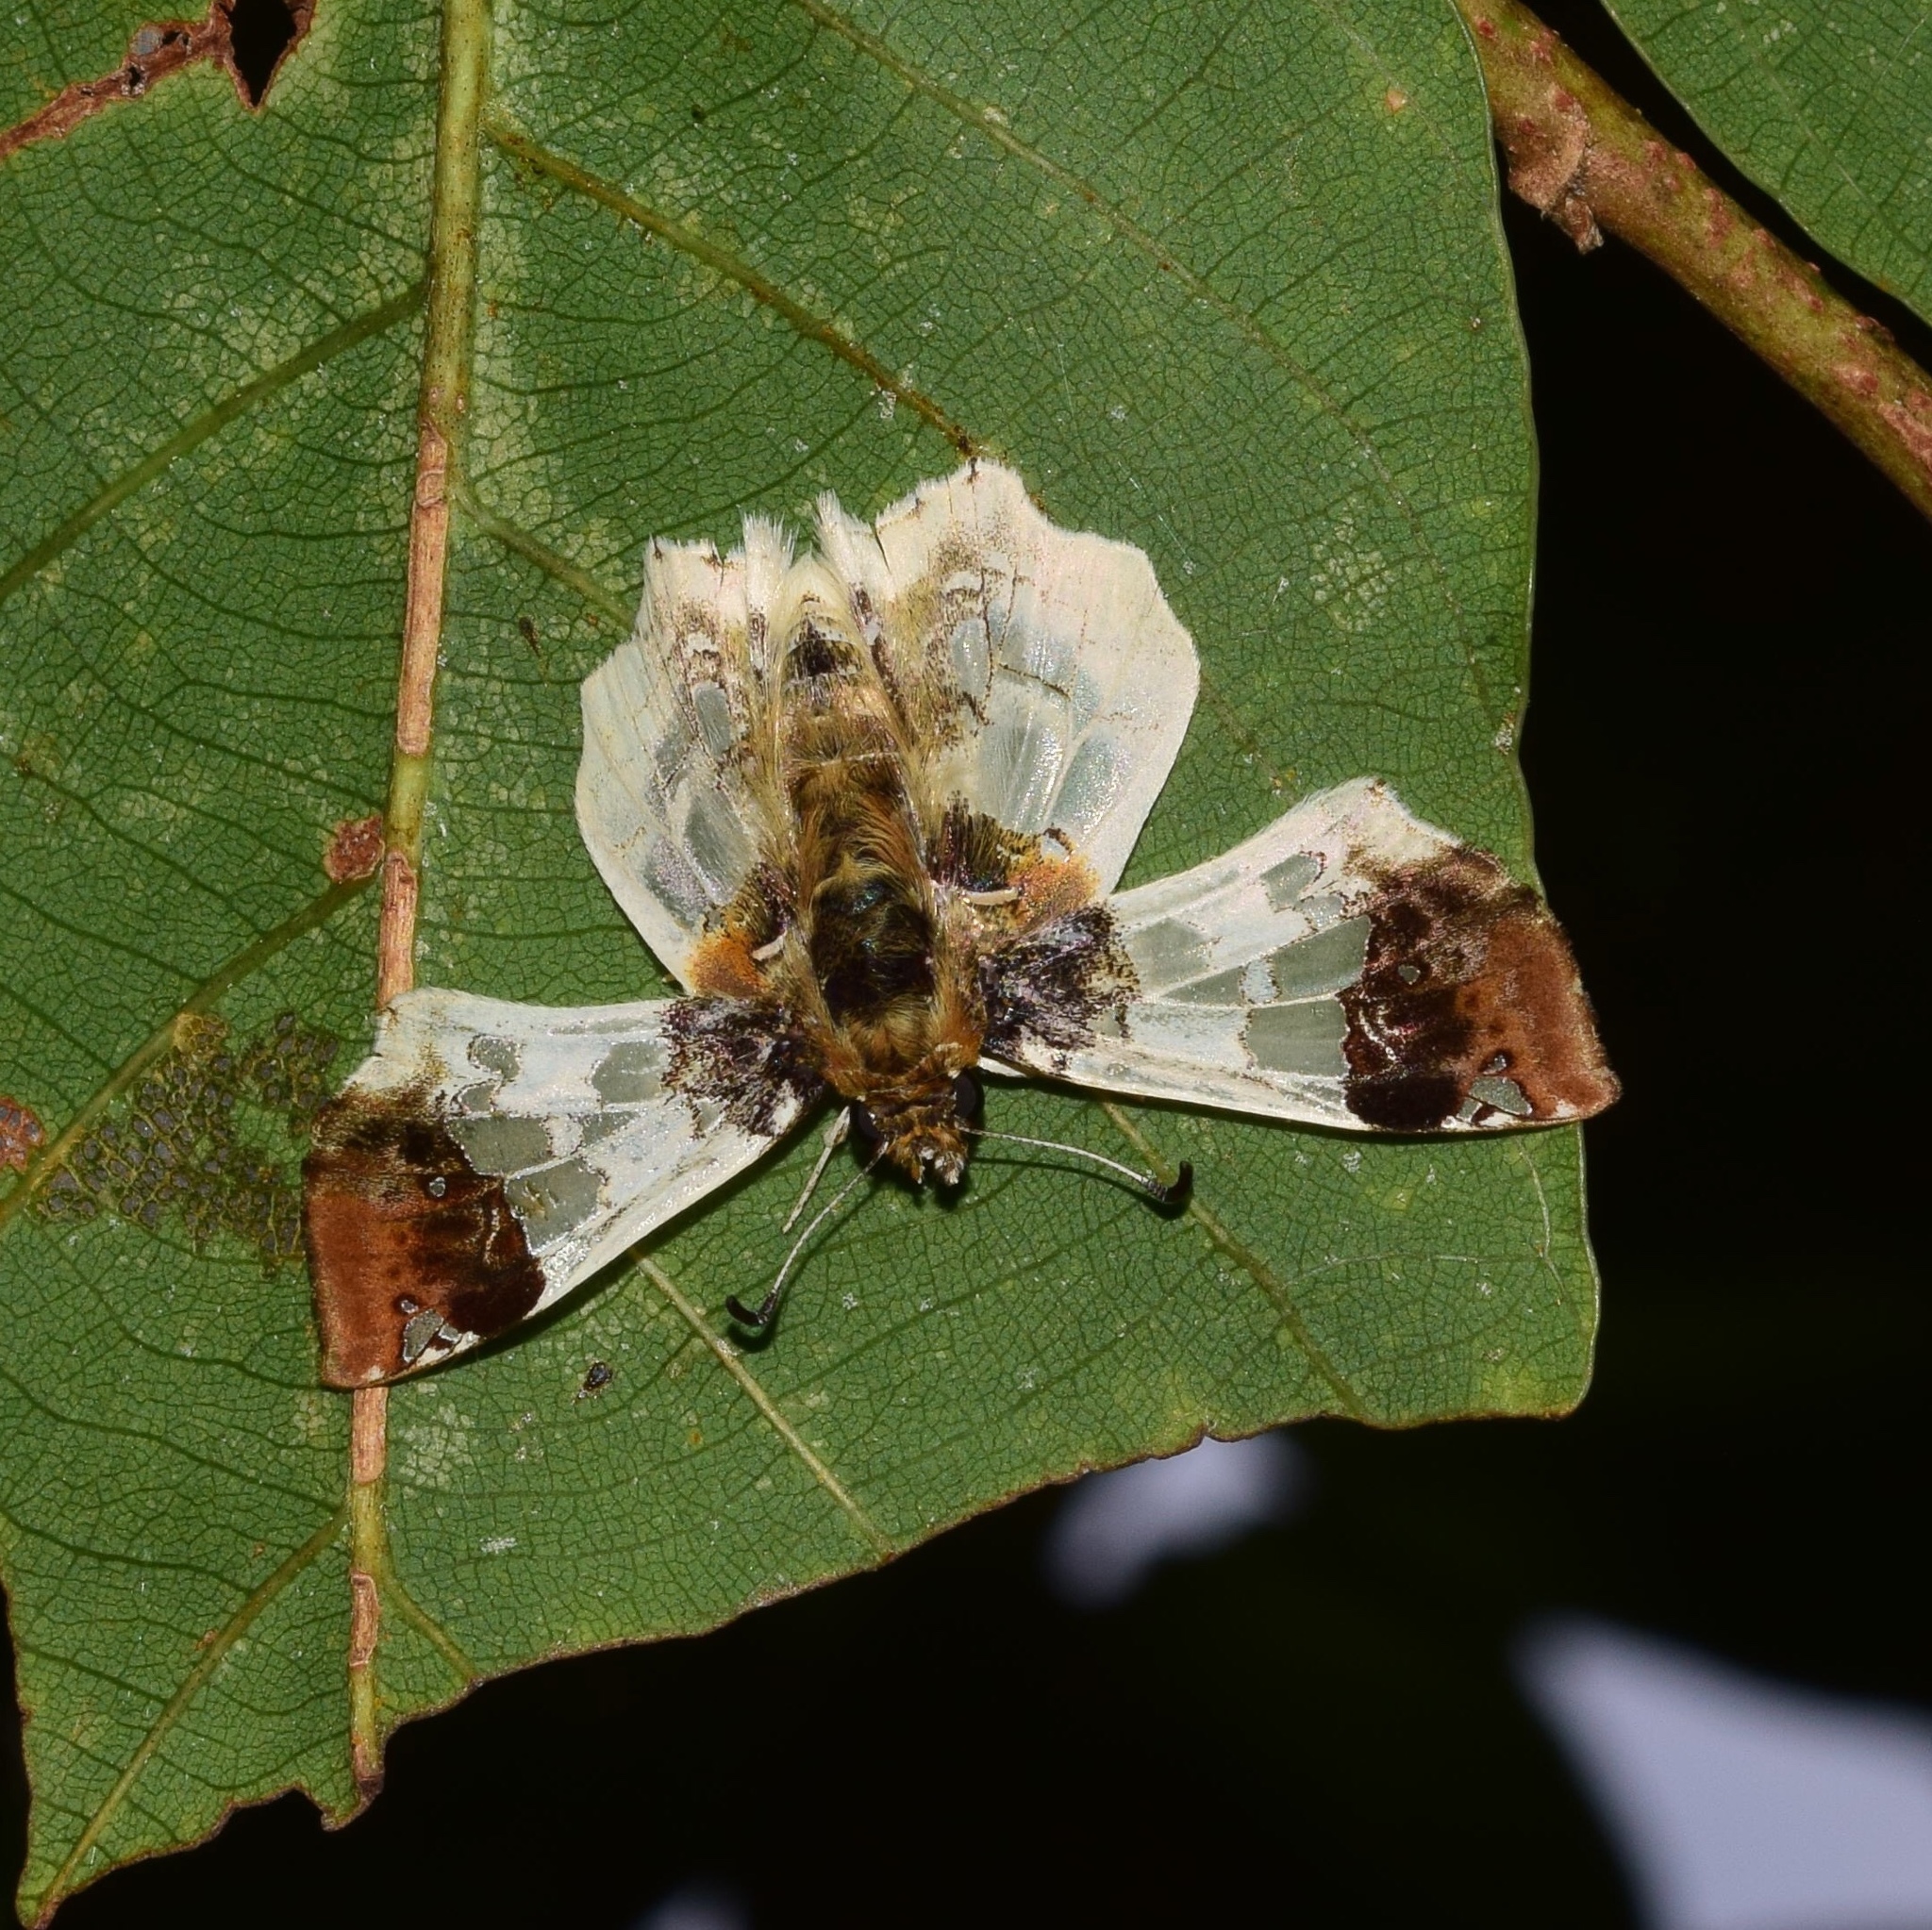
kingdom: Animalia
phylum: Arthropoda
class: Insecta
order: Lepidoptera
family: Hesperiidae
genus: Abantis
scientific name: Abantis
